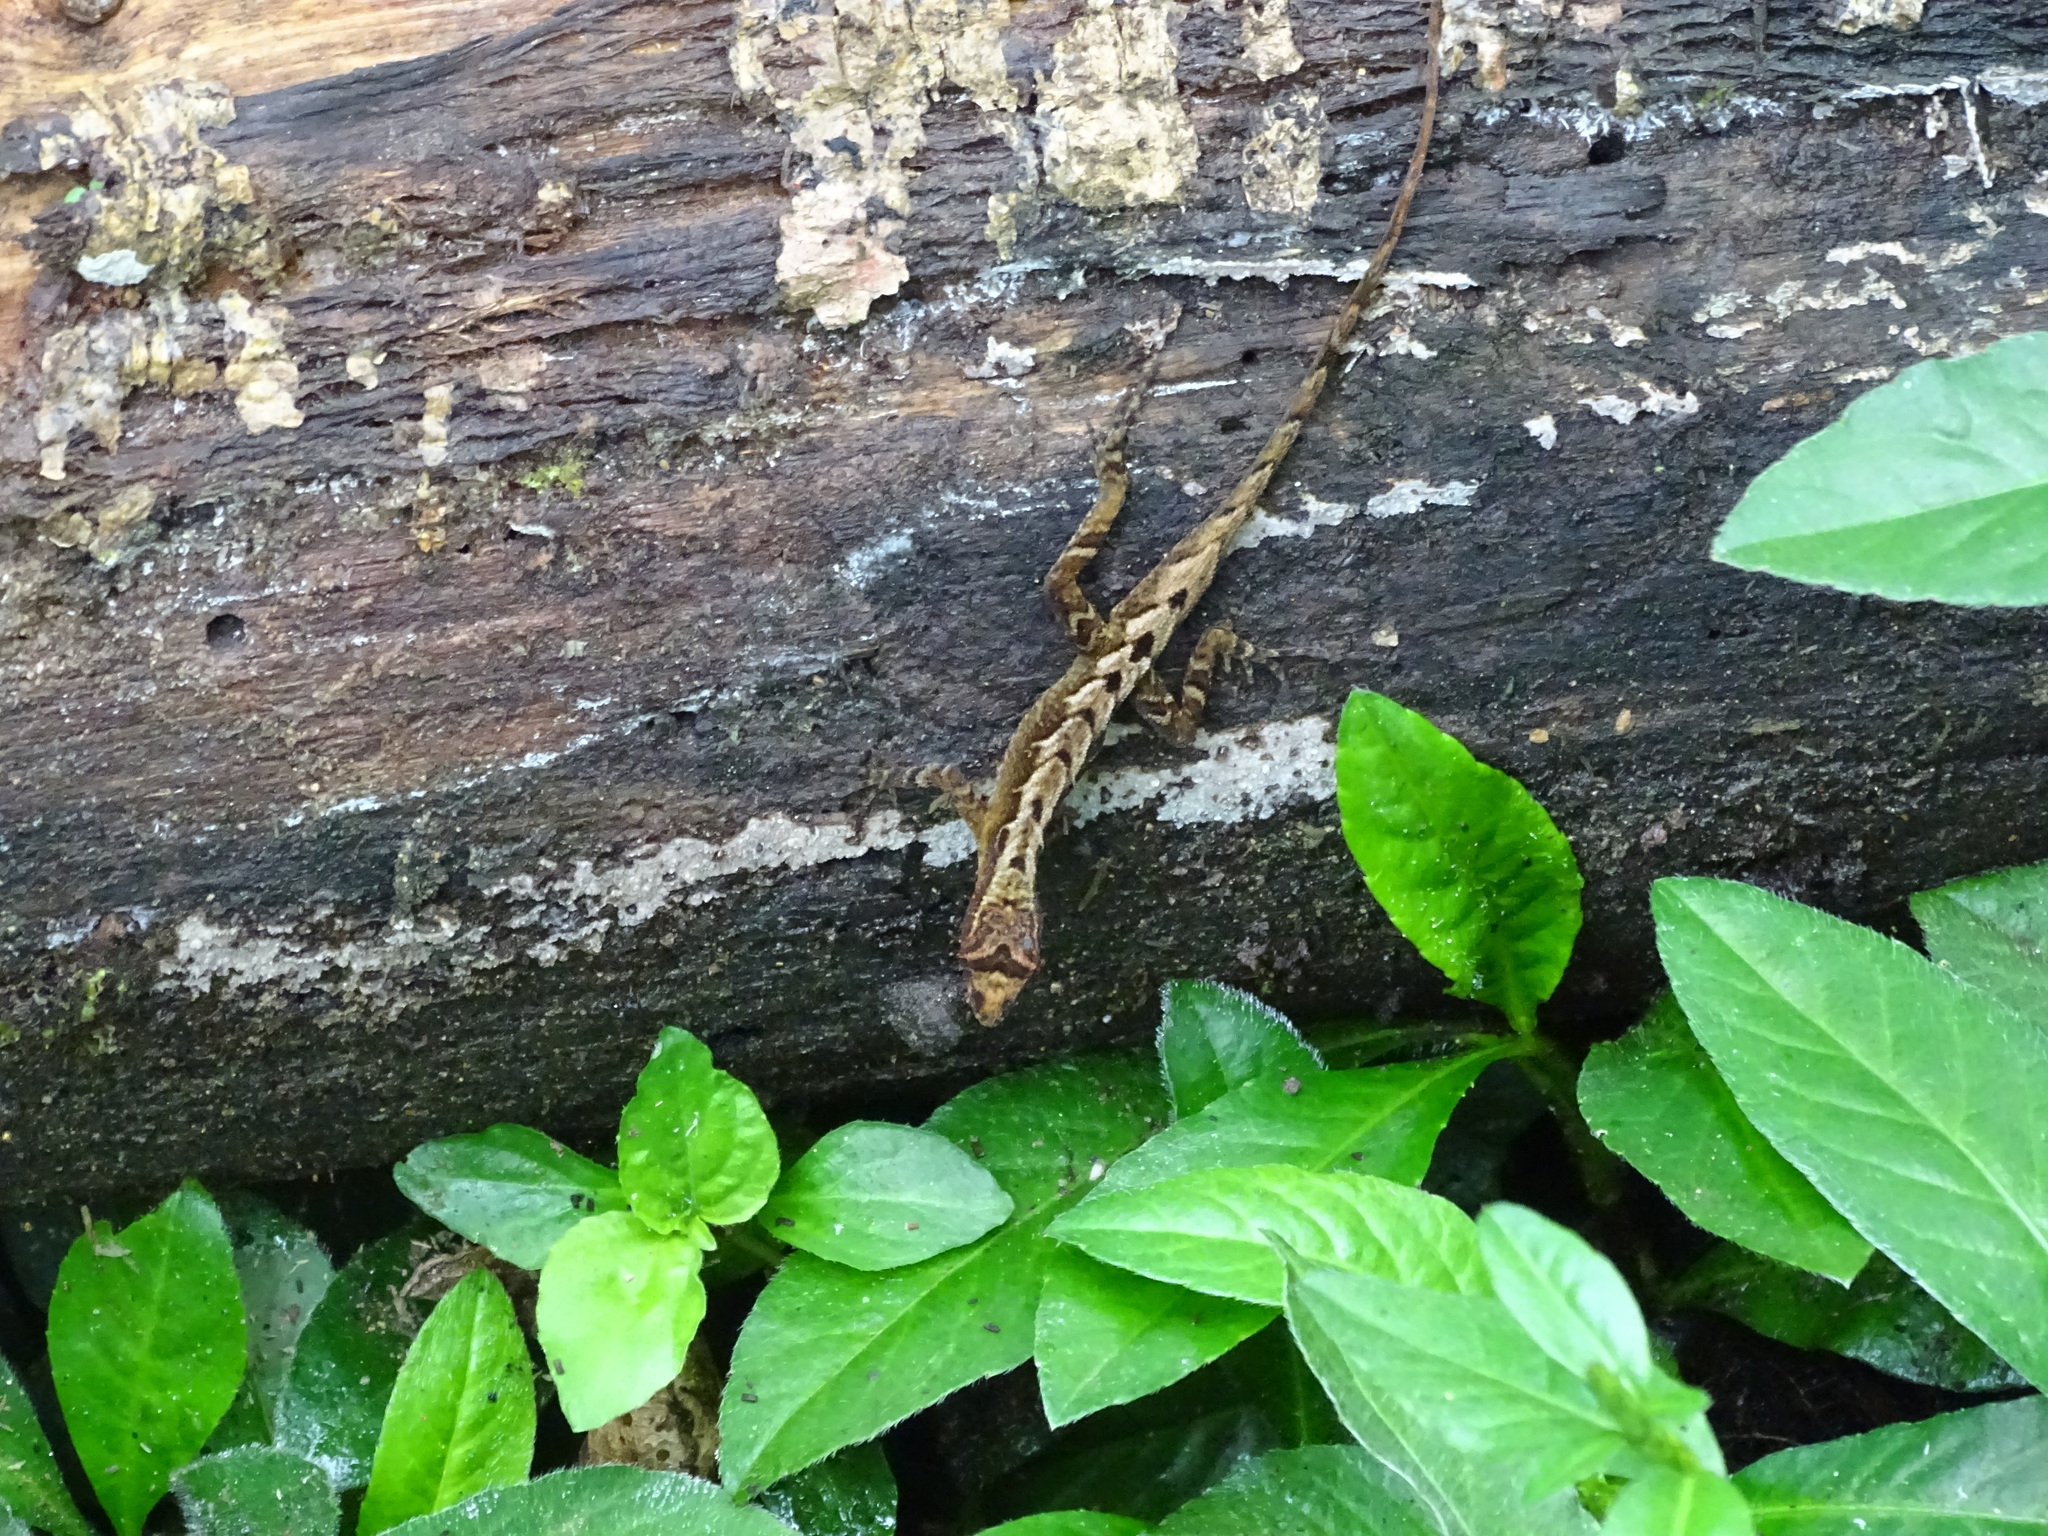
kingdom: Animalia
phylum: Chordata
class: Squamata
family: Dactyloidae
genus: Anolis
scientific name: Anolis marsupialis
